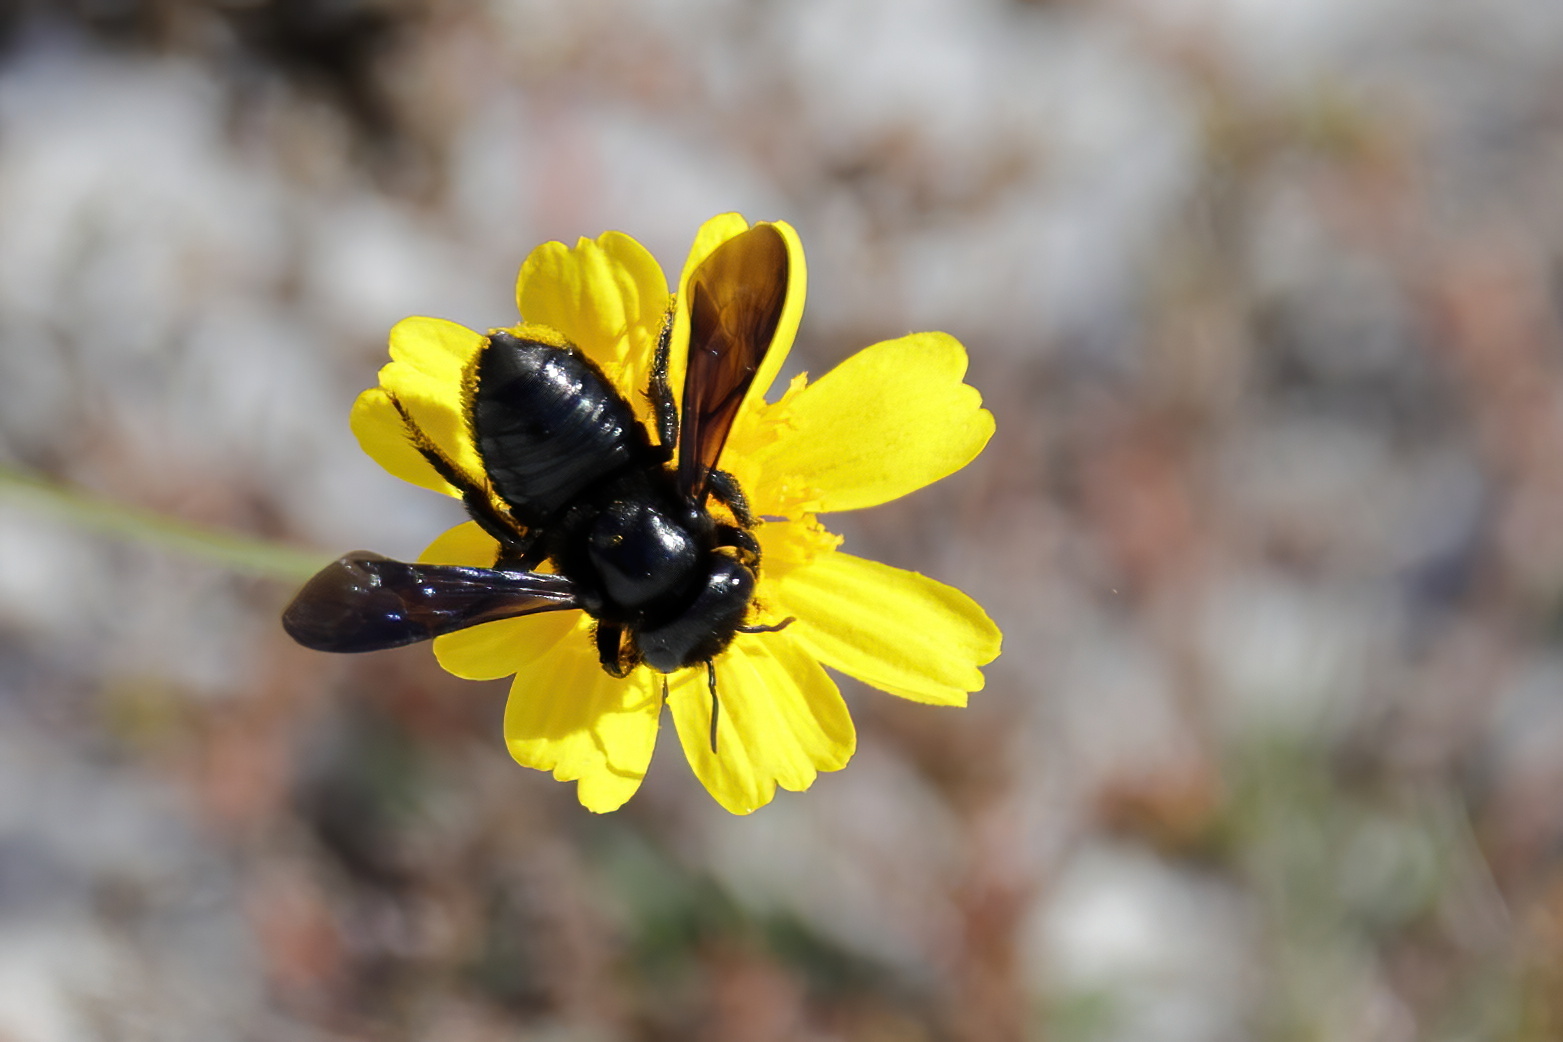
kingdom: Animalia
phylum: Arthropoda
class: Insecta
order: Hymenoptera
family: Megachilidae
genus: Megachile
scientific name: Megachile xylocopoides
